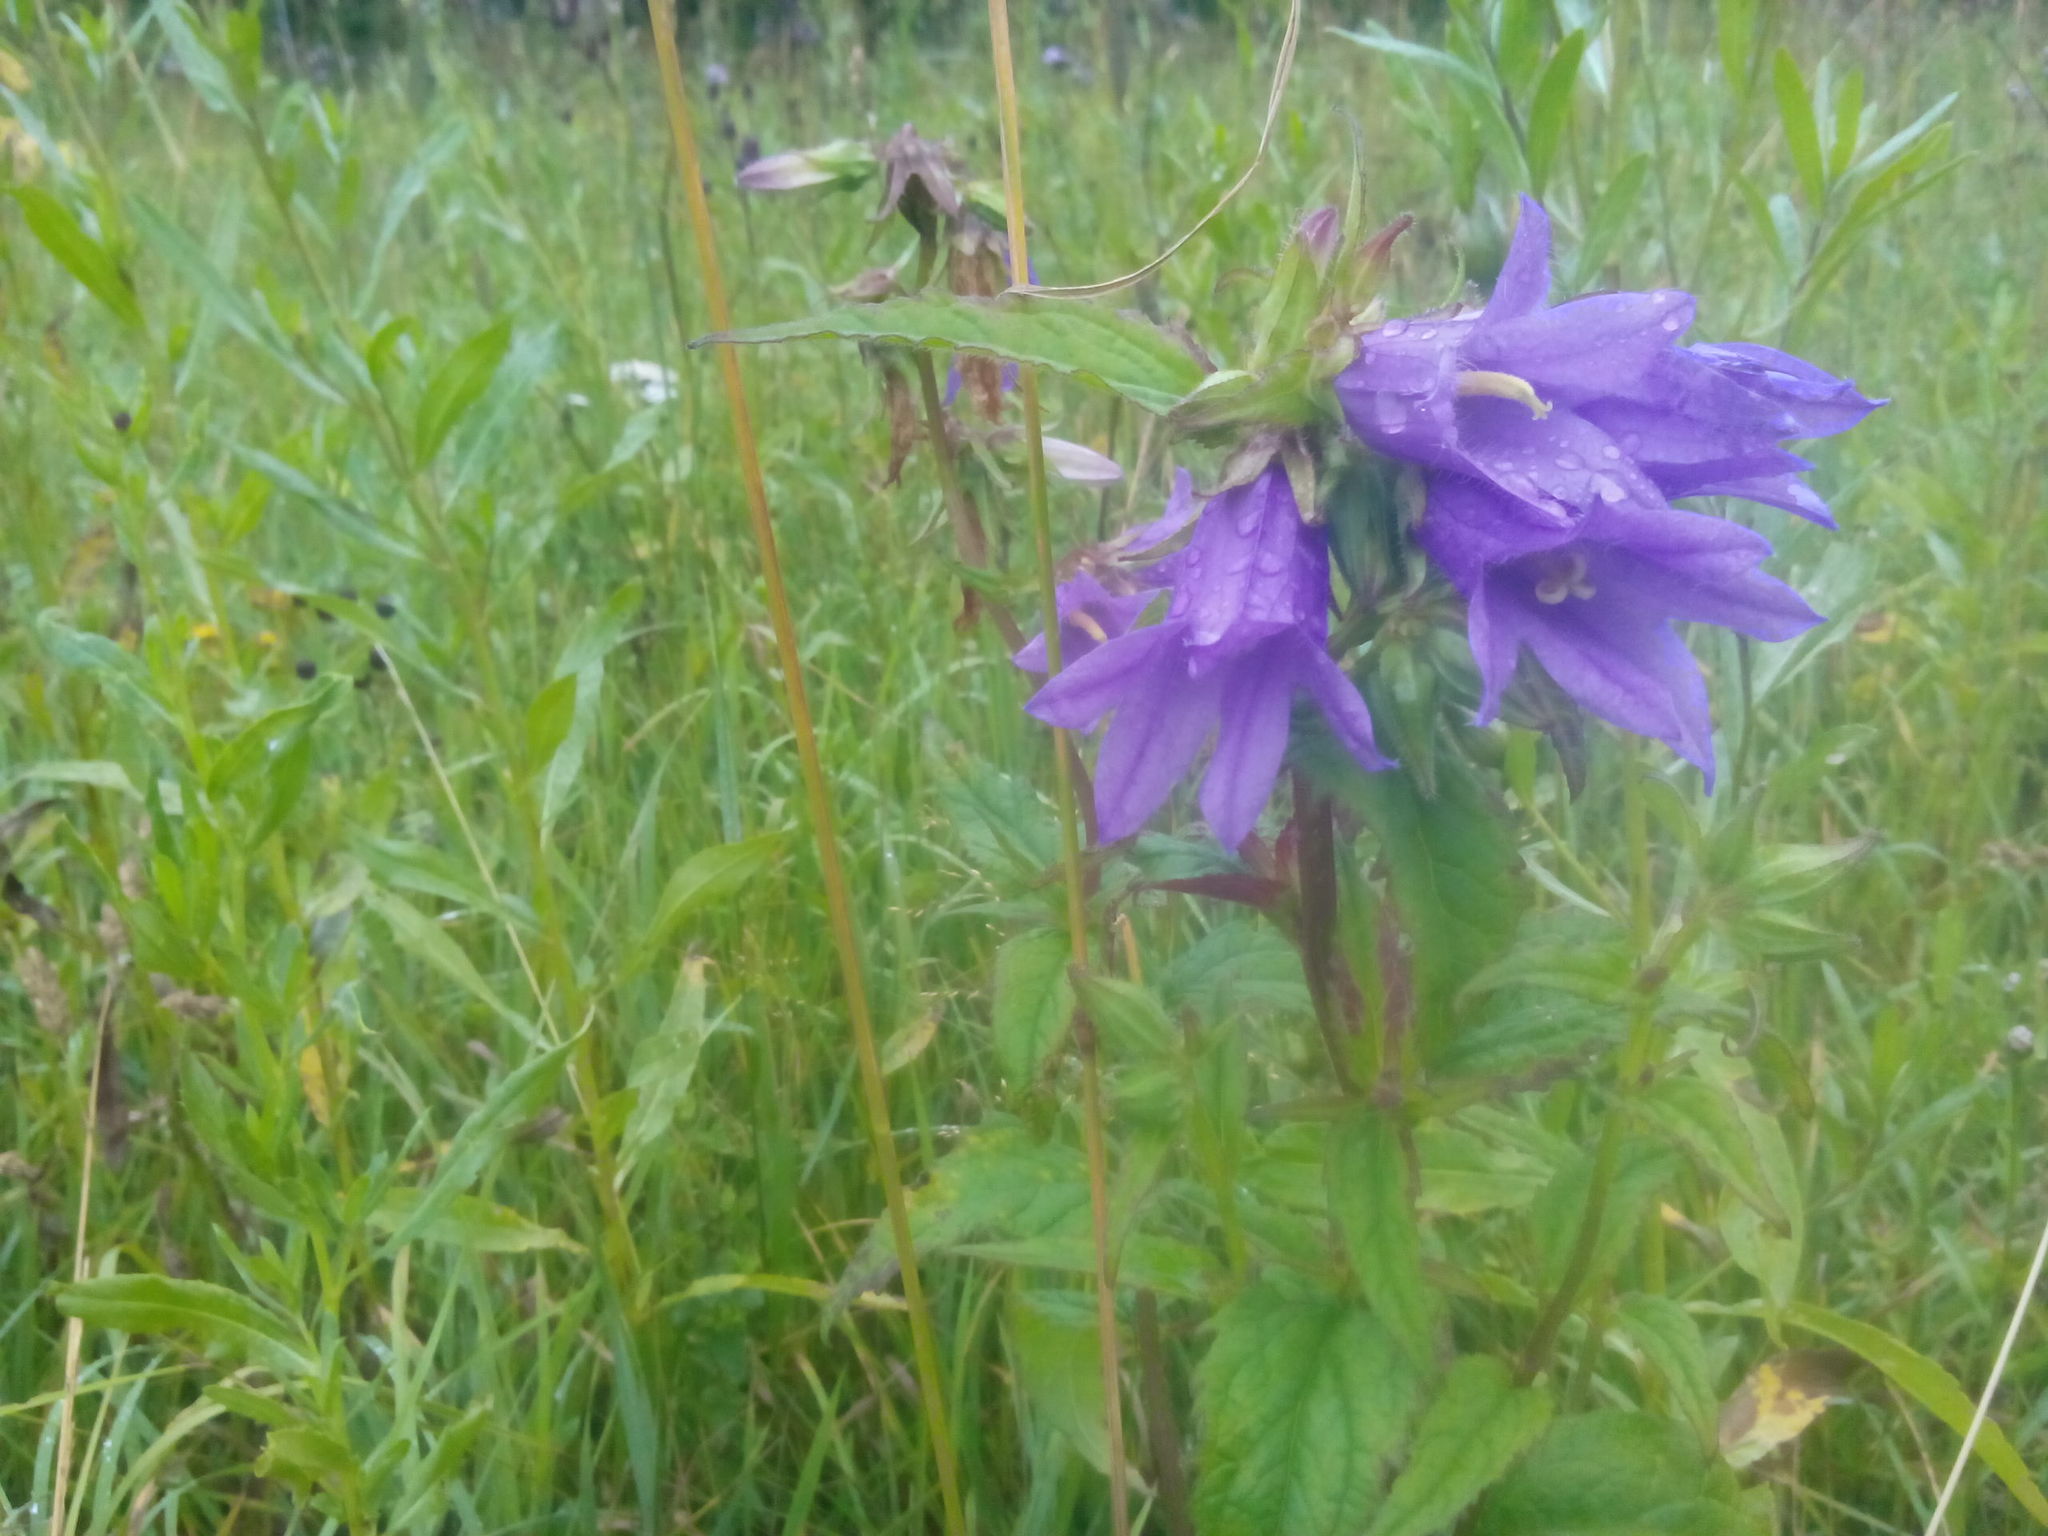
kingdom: Plantae
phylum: Tracheophyta
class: Magnoliopsida
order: Asterales
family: Campanulaceae
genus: Campanula
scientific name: Campanula trachelium
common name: Nettle-leaved bellflower
